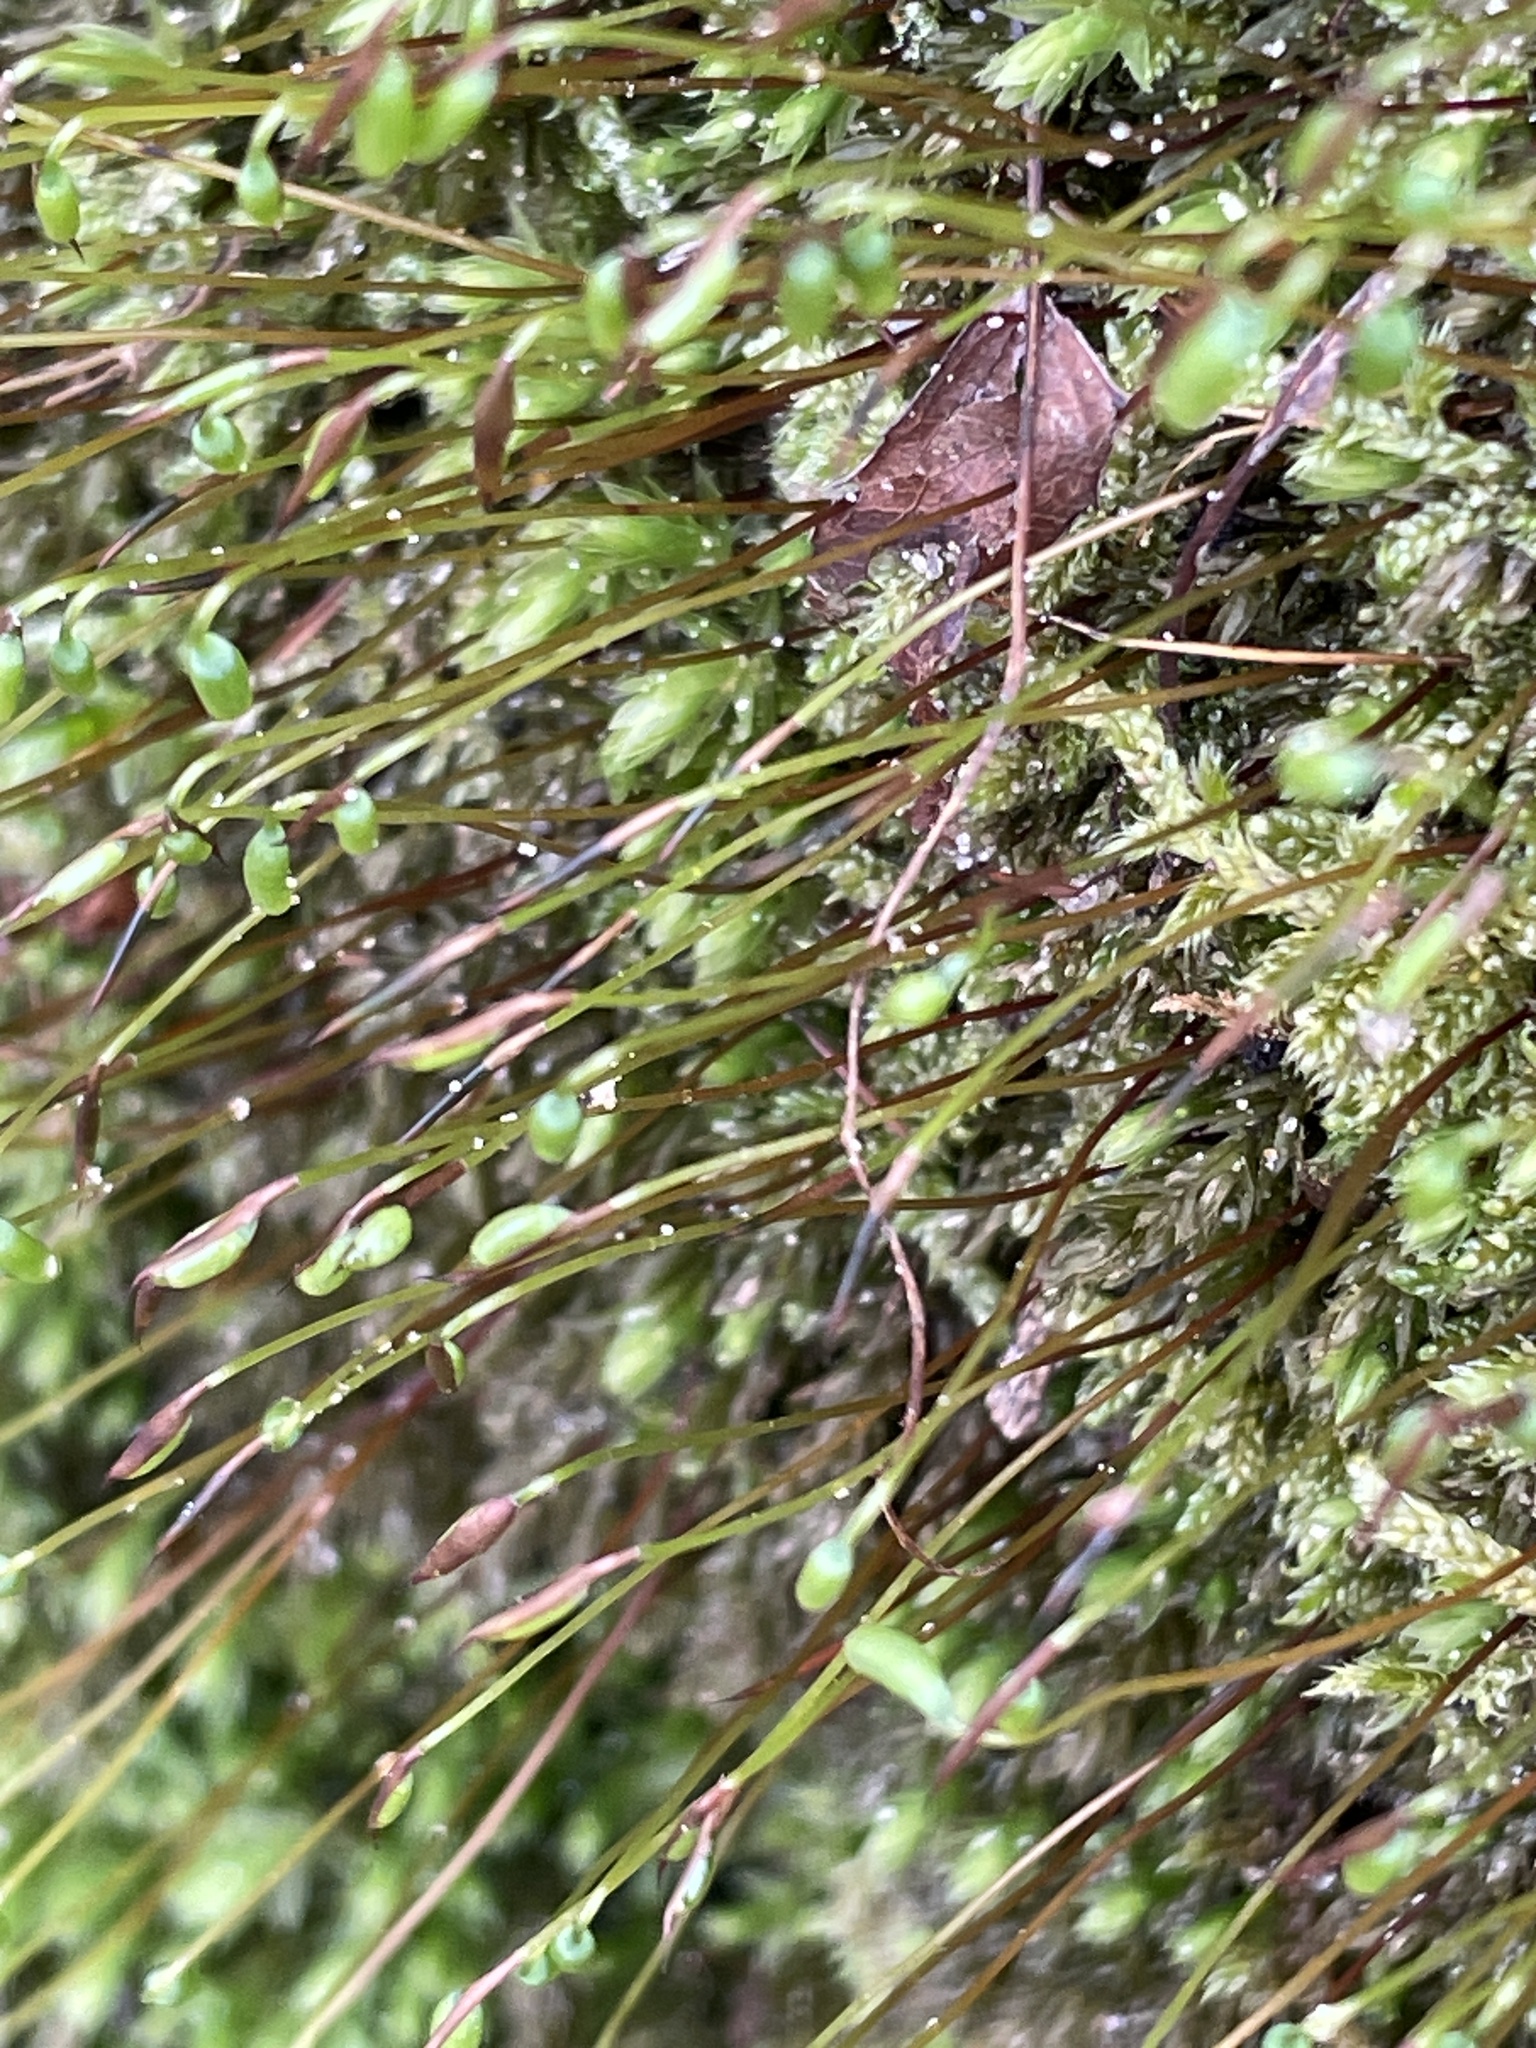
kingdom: Plantae
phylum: Bryophyta
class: Bryopsida
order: Bryales
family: Mniaceae
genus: Mnium
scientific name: Mnium hornum
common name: Swan's-neck leafy moss
